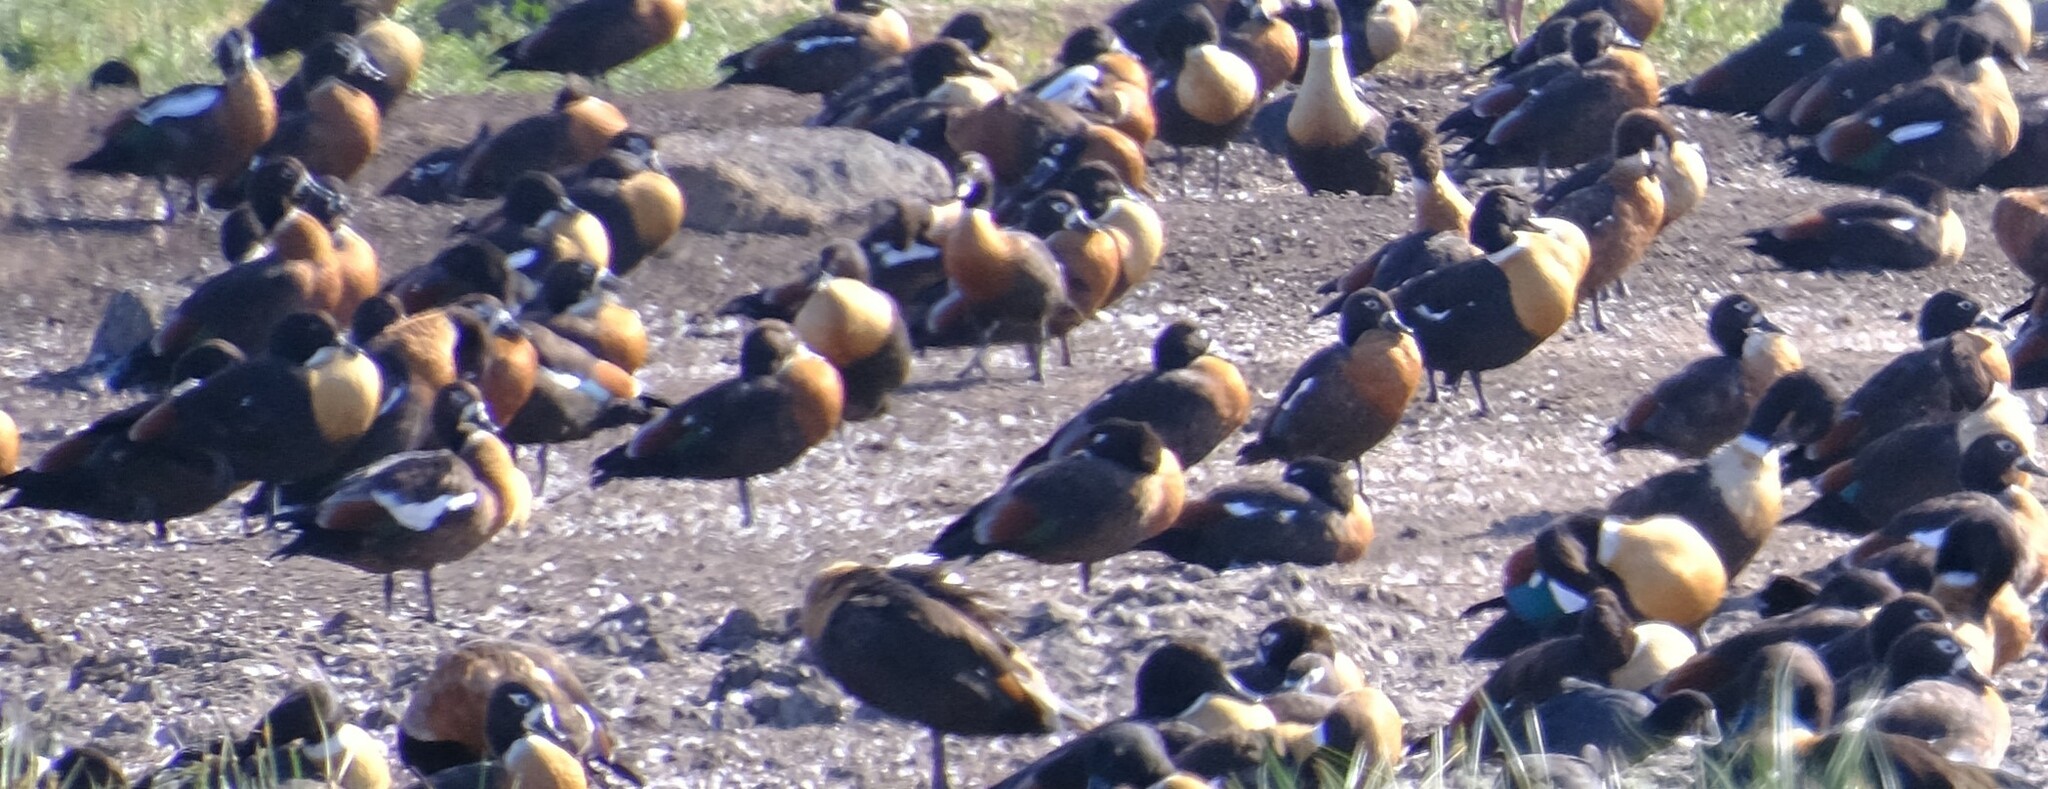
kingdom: Animalia
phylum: Chordata
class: Aves
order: Anseriformes
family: Anatidae
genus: Tadorna
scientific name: Tadorna tadornoides
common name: Australian shelduck
